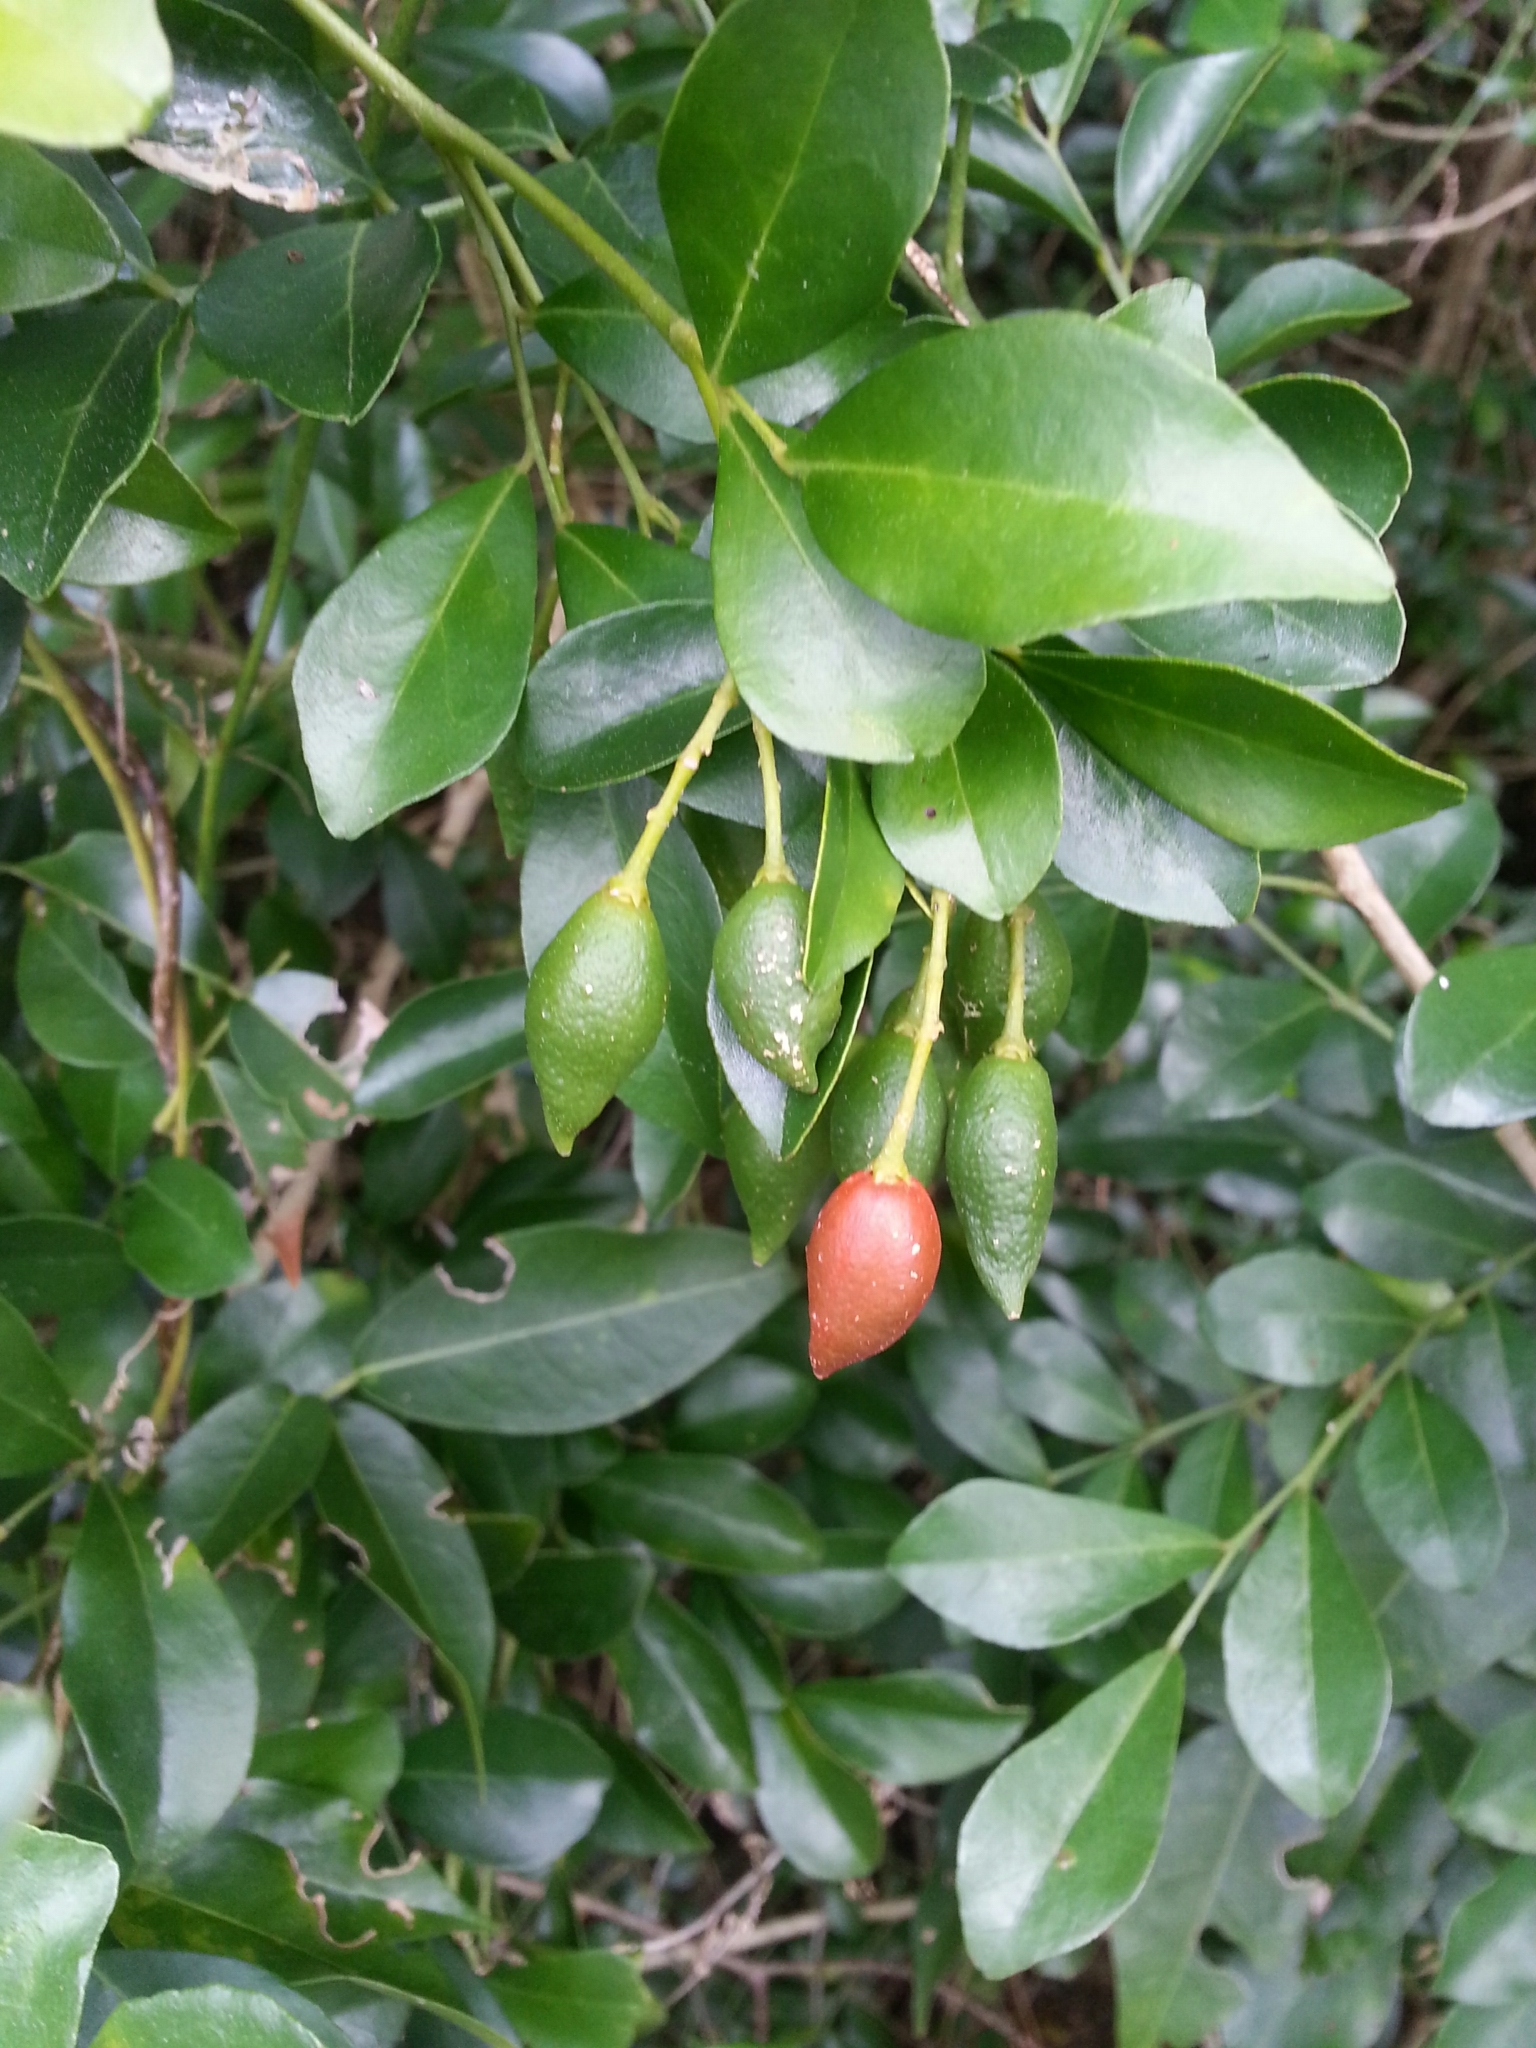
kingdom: Plantae
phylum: Tracheophyta
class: Magnoliopsida
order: Sapindales
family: Rutaceae
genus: Murraya
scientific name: Murraya paniculata
